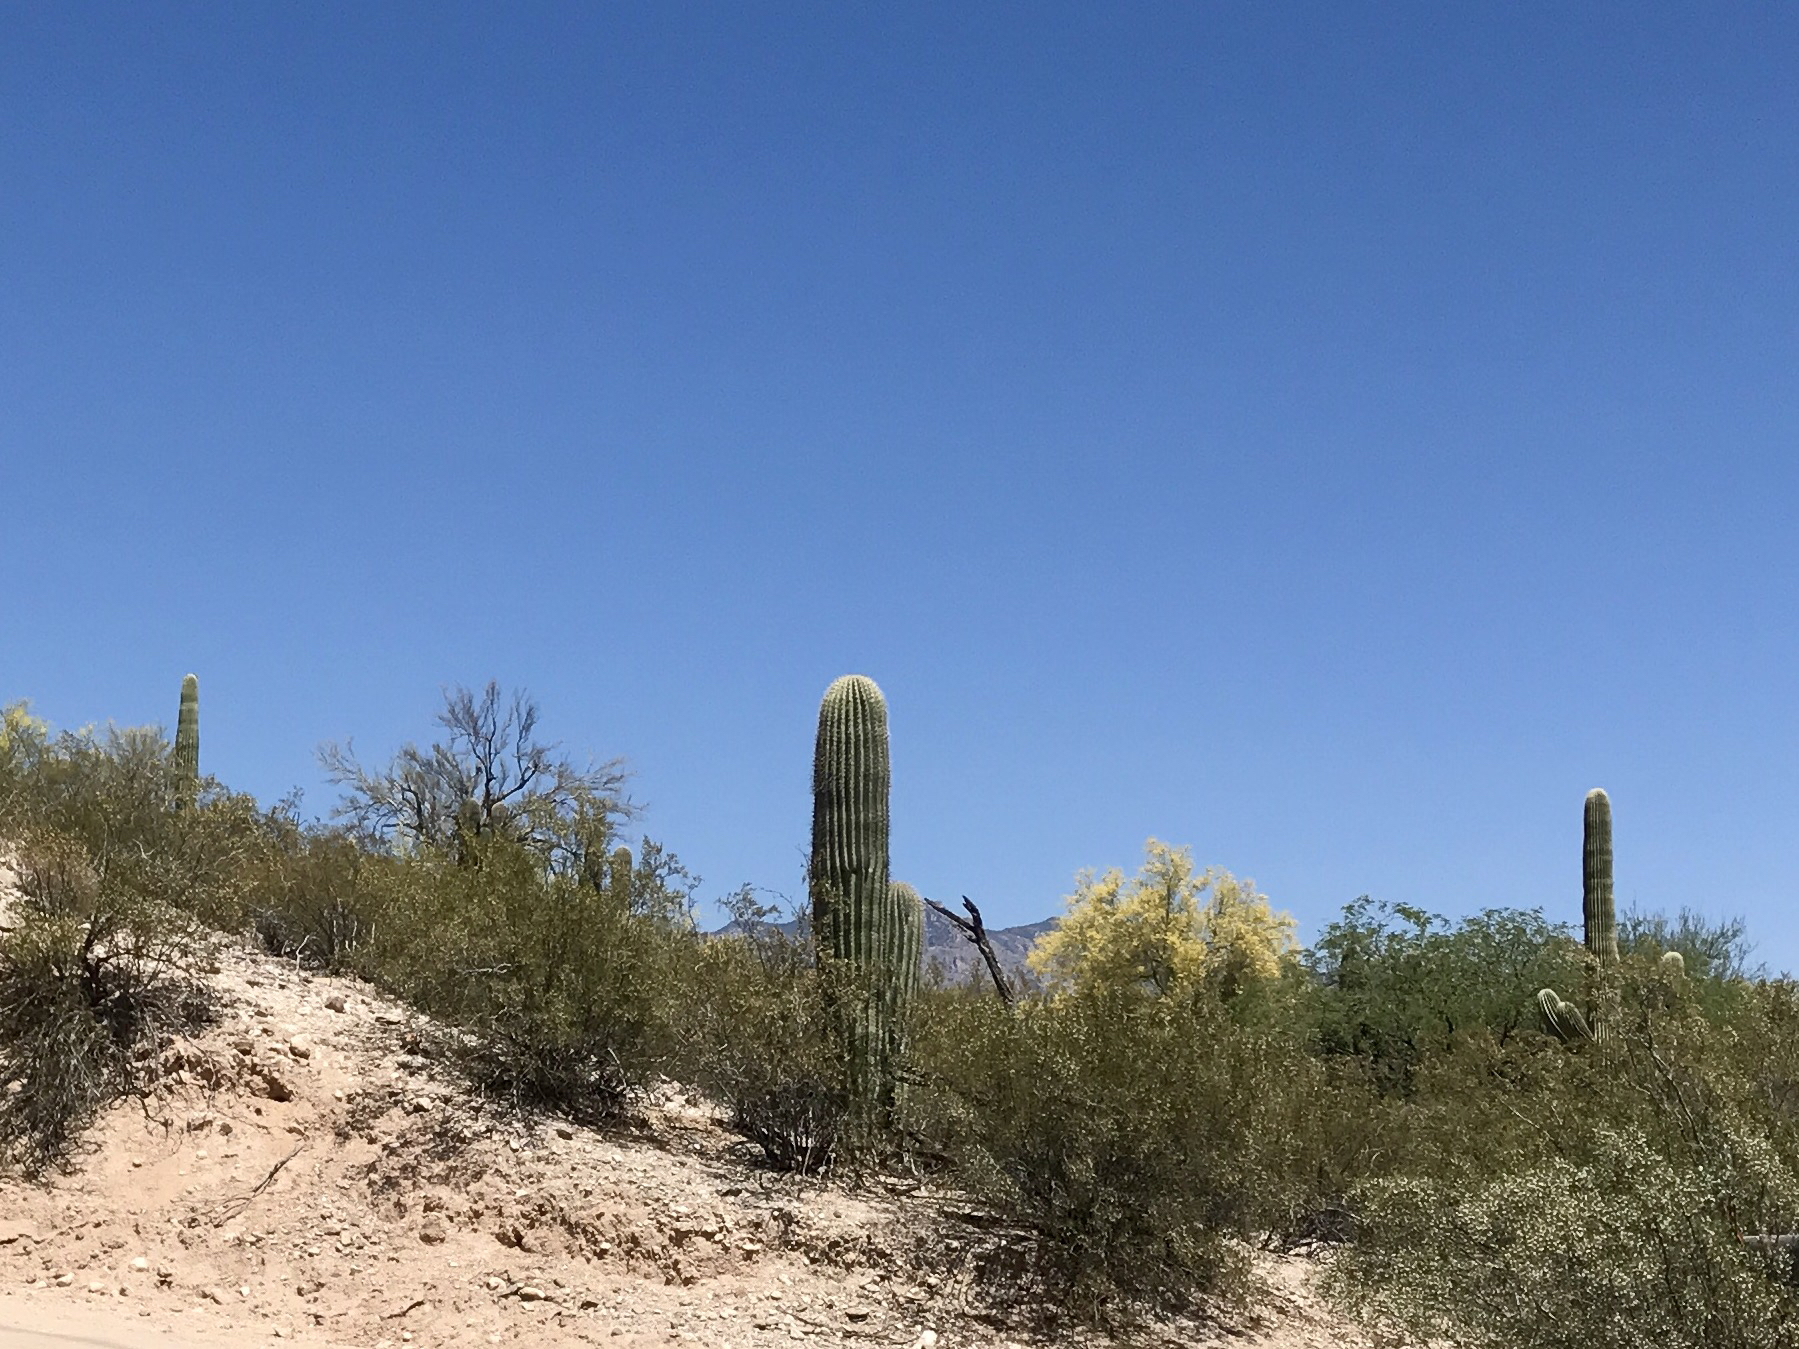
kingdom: Plantae
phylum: Tracheophyta
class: Magnoliopsida
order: Caryophyllales
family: Cactaceae
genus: Carnegiea
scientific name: Carnegiea gigantea
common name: Saguaro
